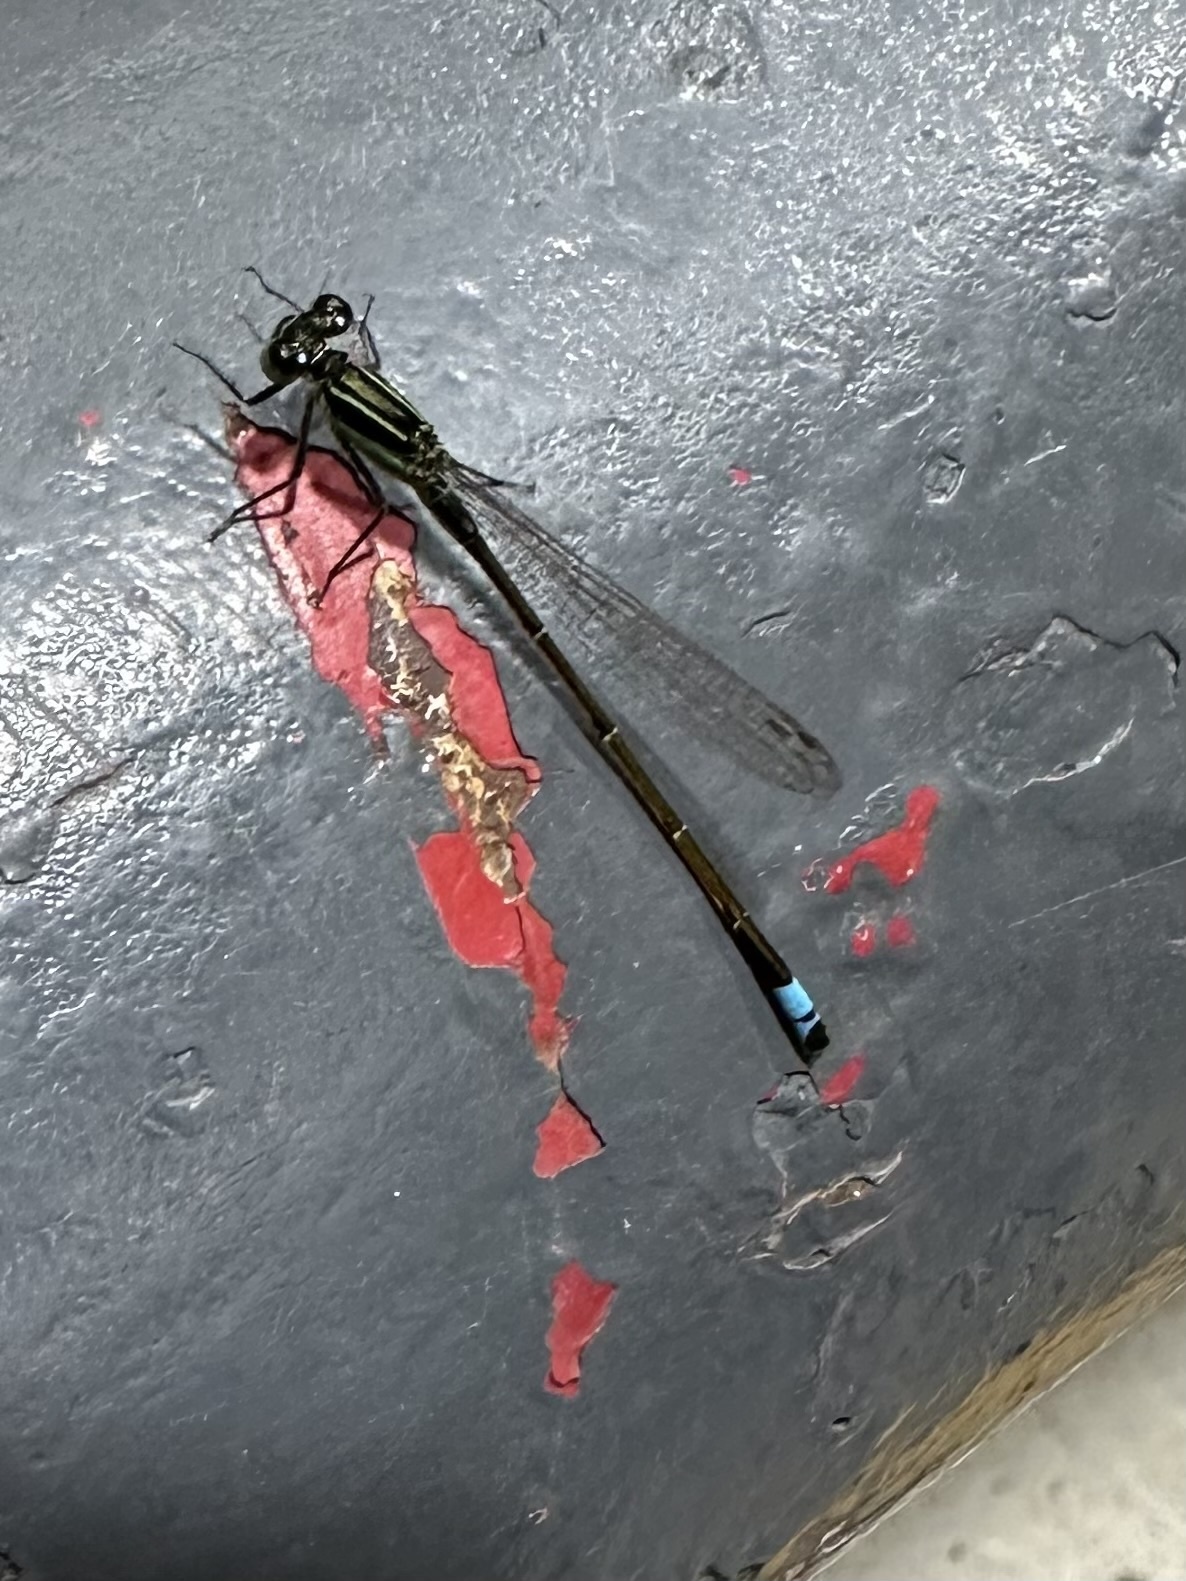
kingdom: Animalia
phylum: Arthropoda
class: Insecta
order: Odonata
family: Coenagrionidae
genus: Ischnura
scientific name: Ischnura ramburii
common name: Rambur's forktail
